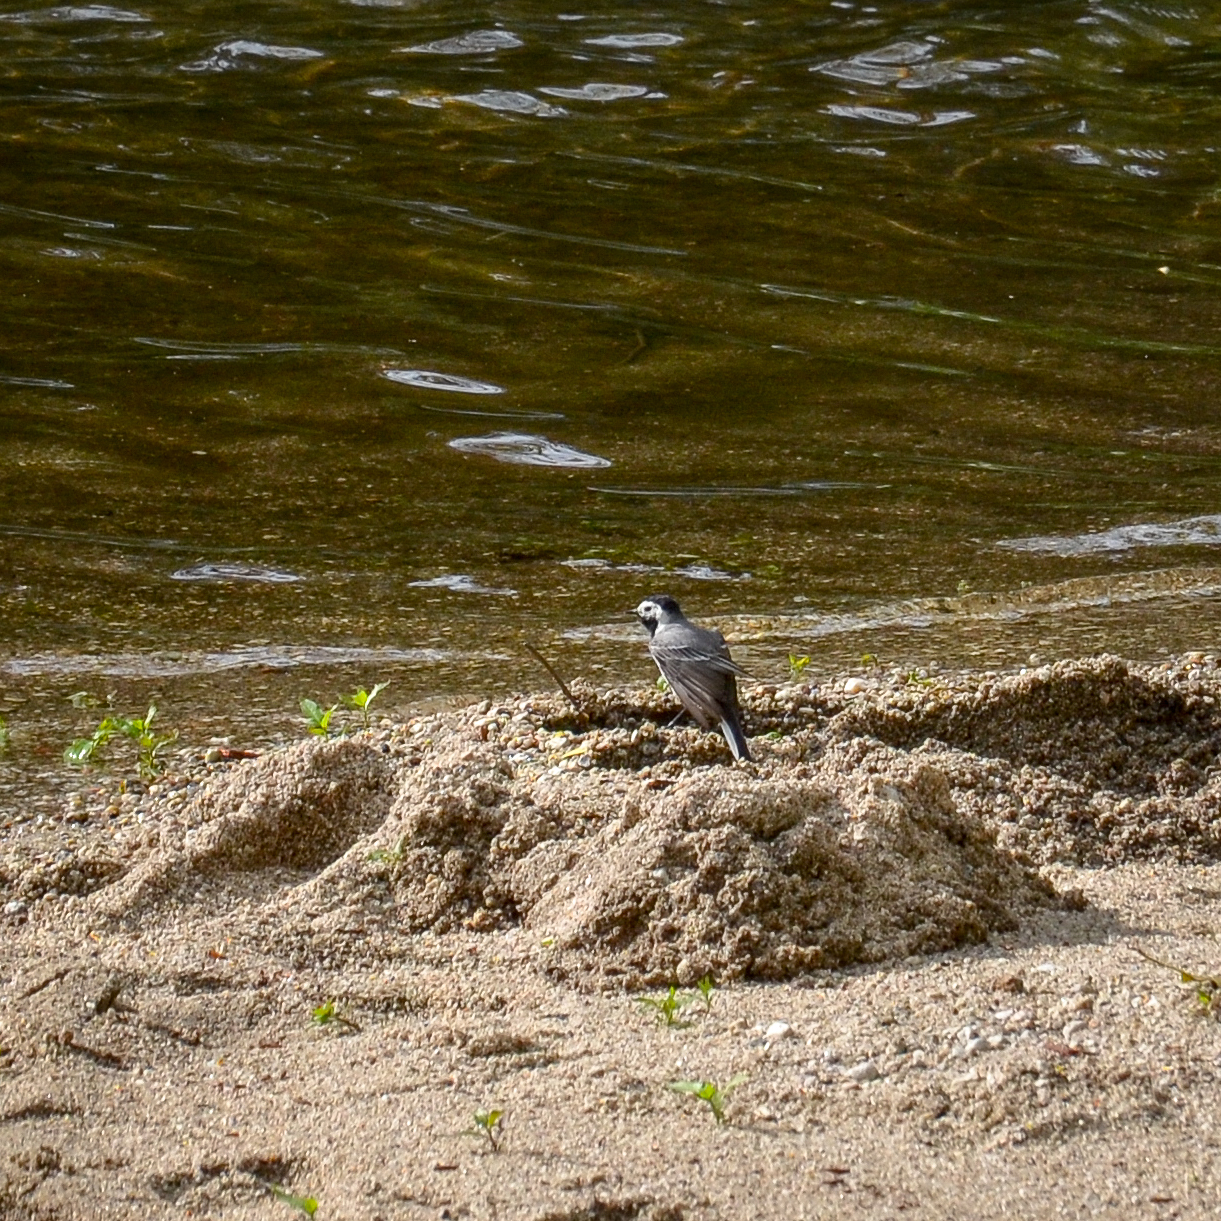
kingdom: Animalia
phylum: Chordata
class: Aves
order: Passeriformes
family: Motacillidae
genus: Motacilla
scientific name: Motacilla alba
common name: White wagtail
